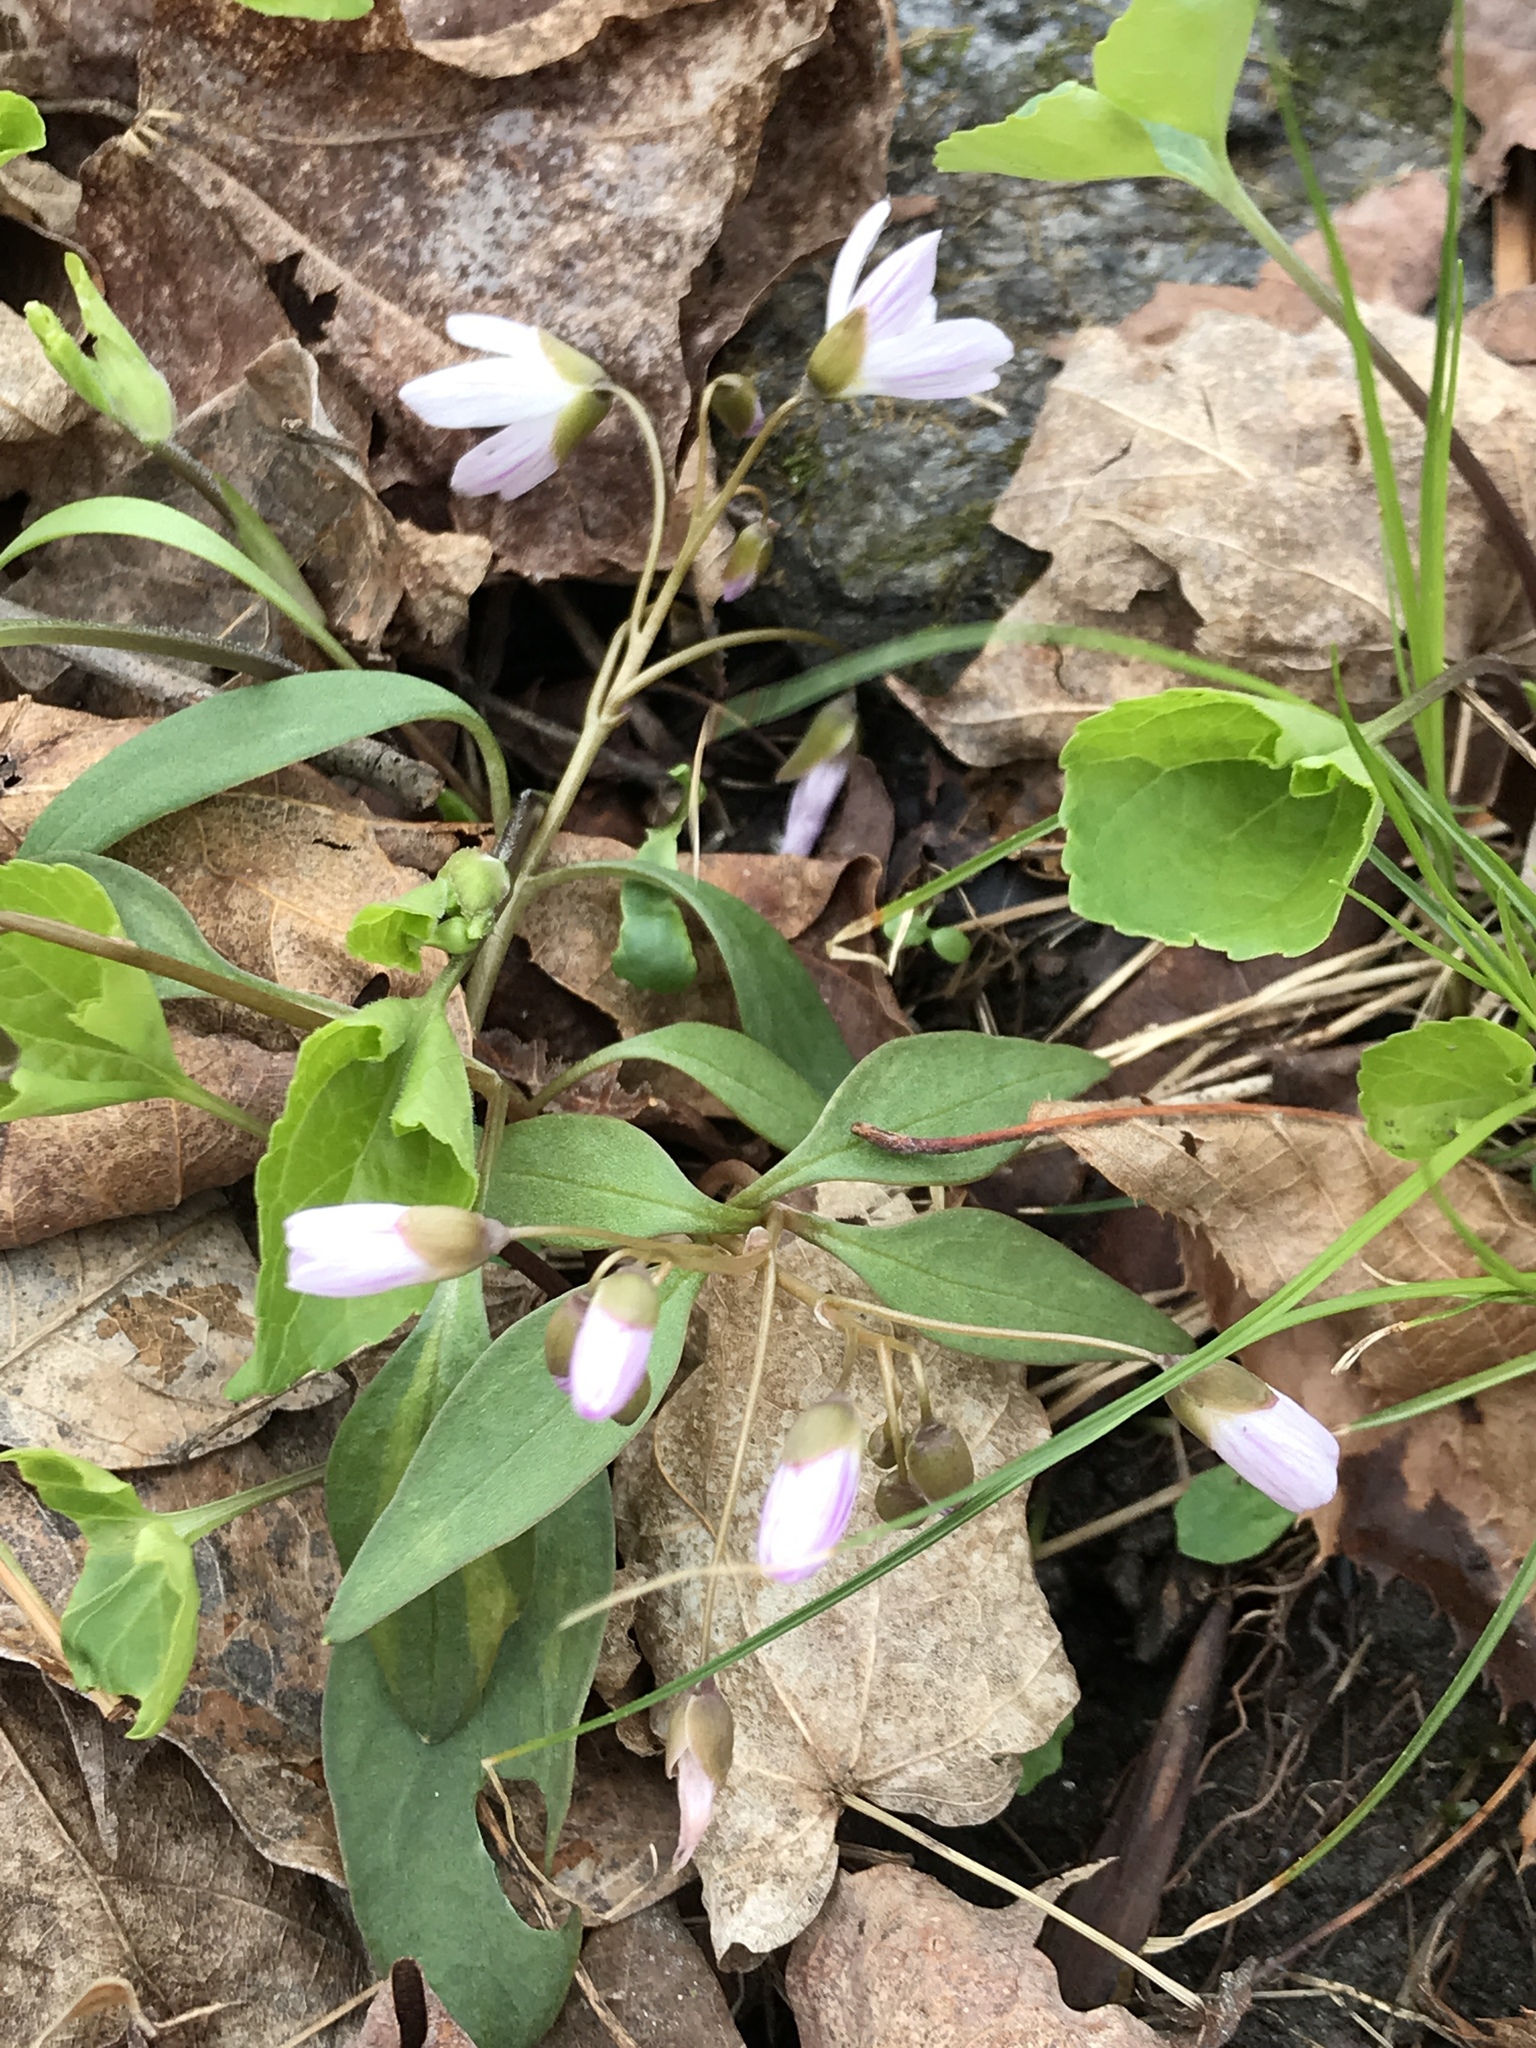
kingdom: Plantae
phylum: Tracheophyta
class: Magnoliopsida
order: Caryophyllales
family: Montiaceae
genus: Claytonia
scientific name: Claytonia caroliniana
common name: Carolina spring beauty
